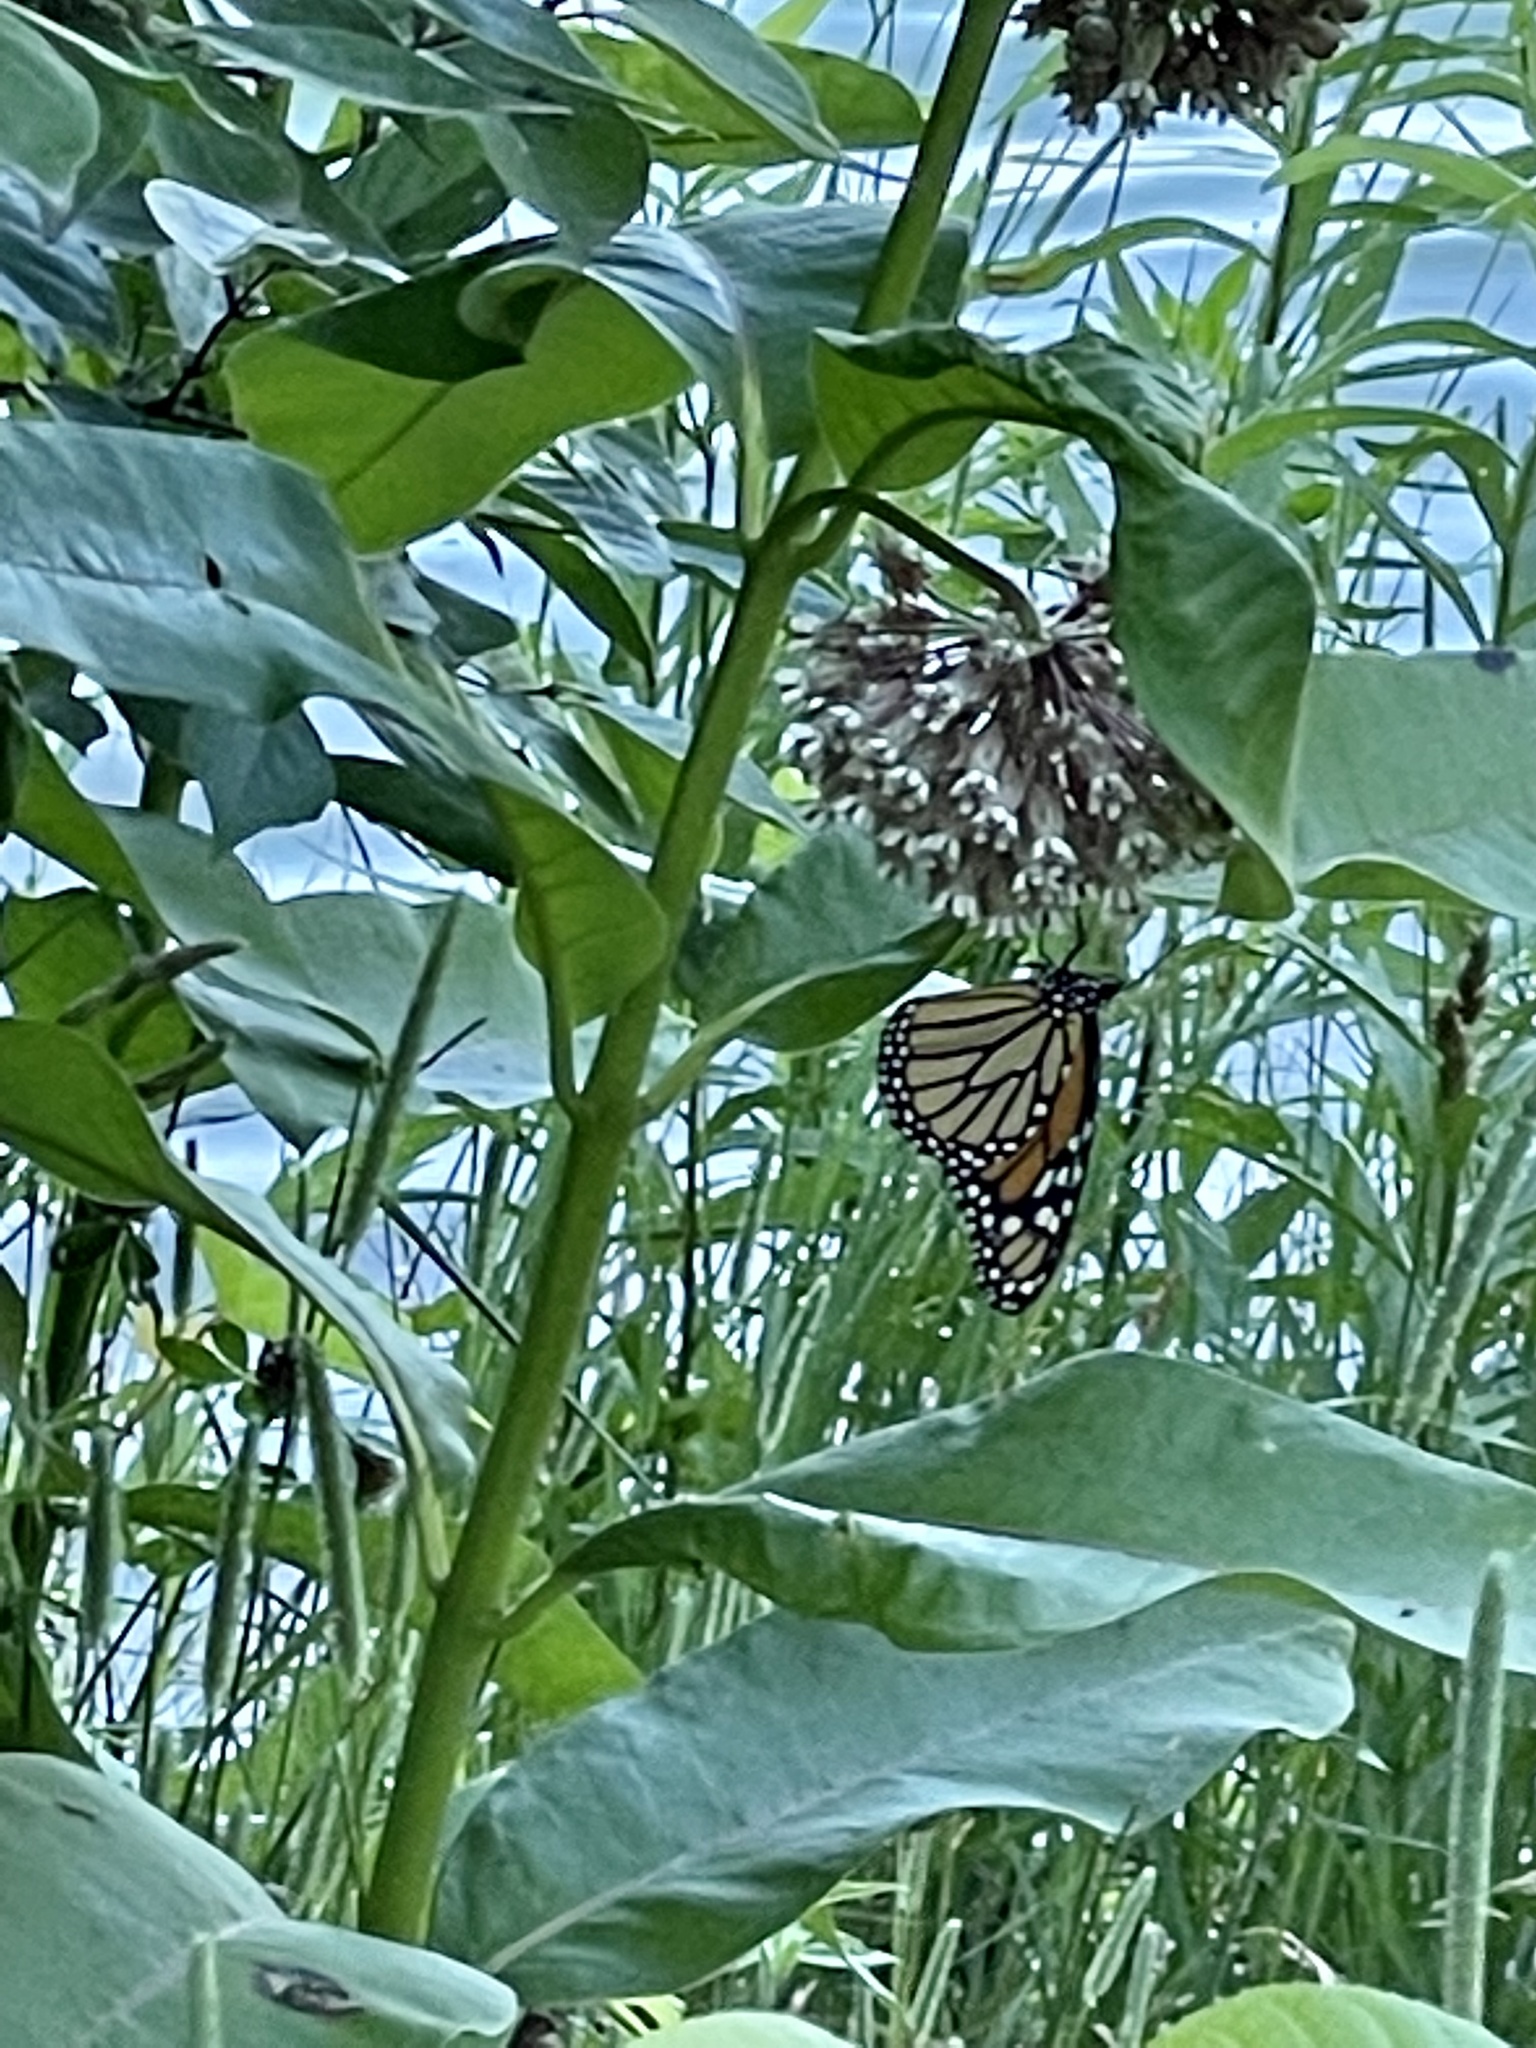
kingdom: Animalia
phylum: Arthropoda
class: Insecta
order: Lepidoptera
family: Nymphalidae
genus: Danaus
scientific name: Danaus plexippus
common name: Monarch
